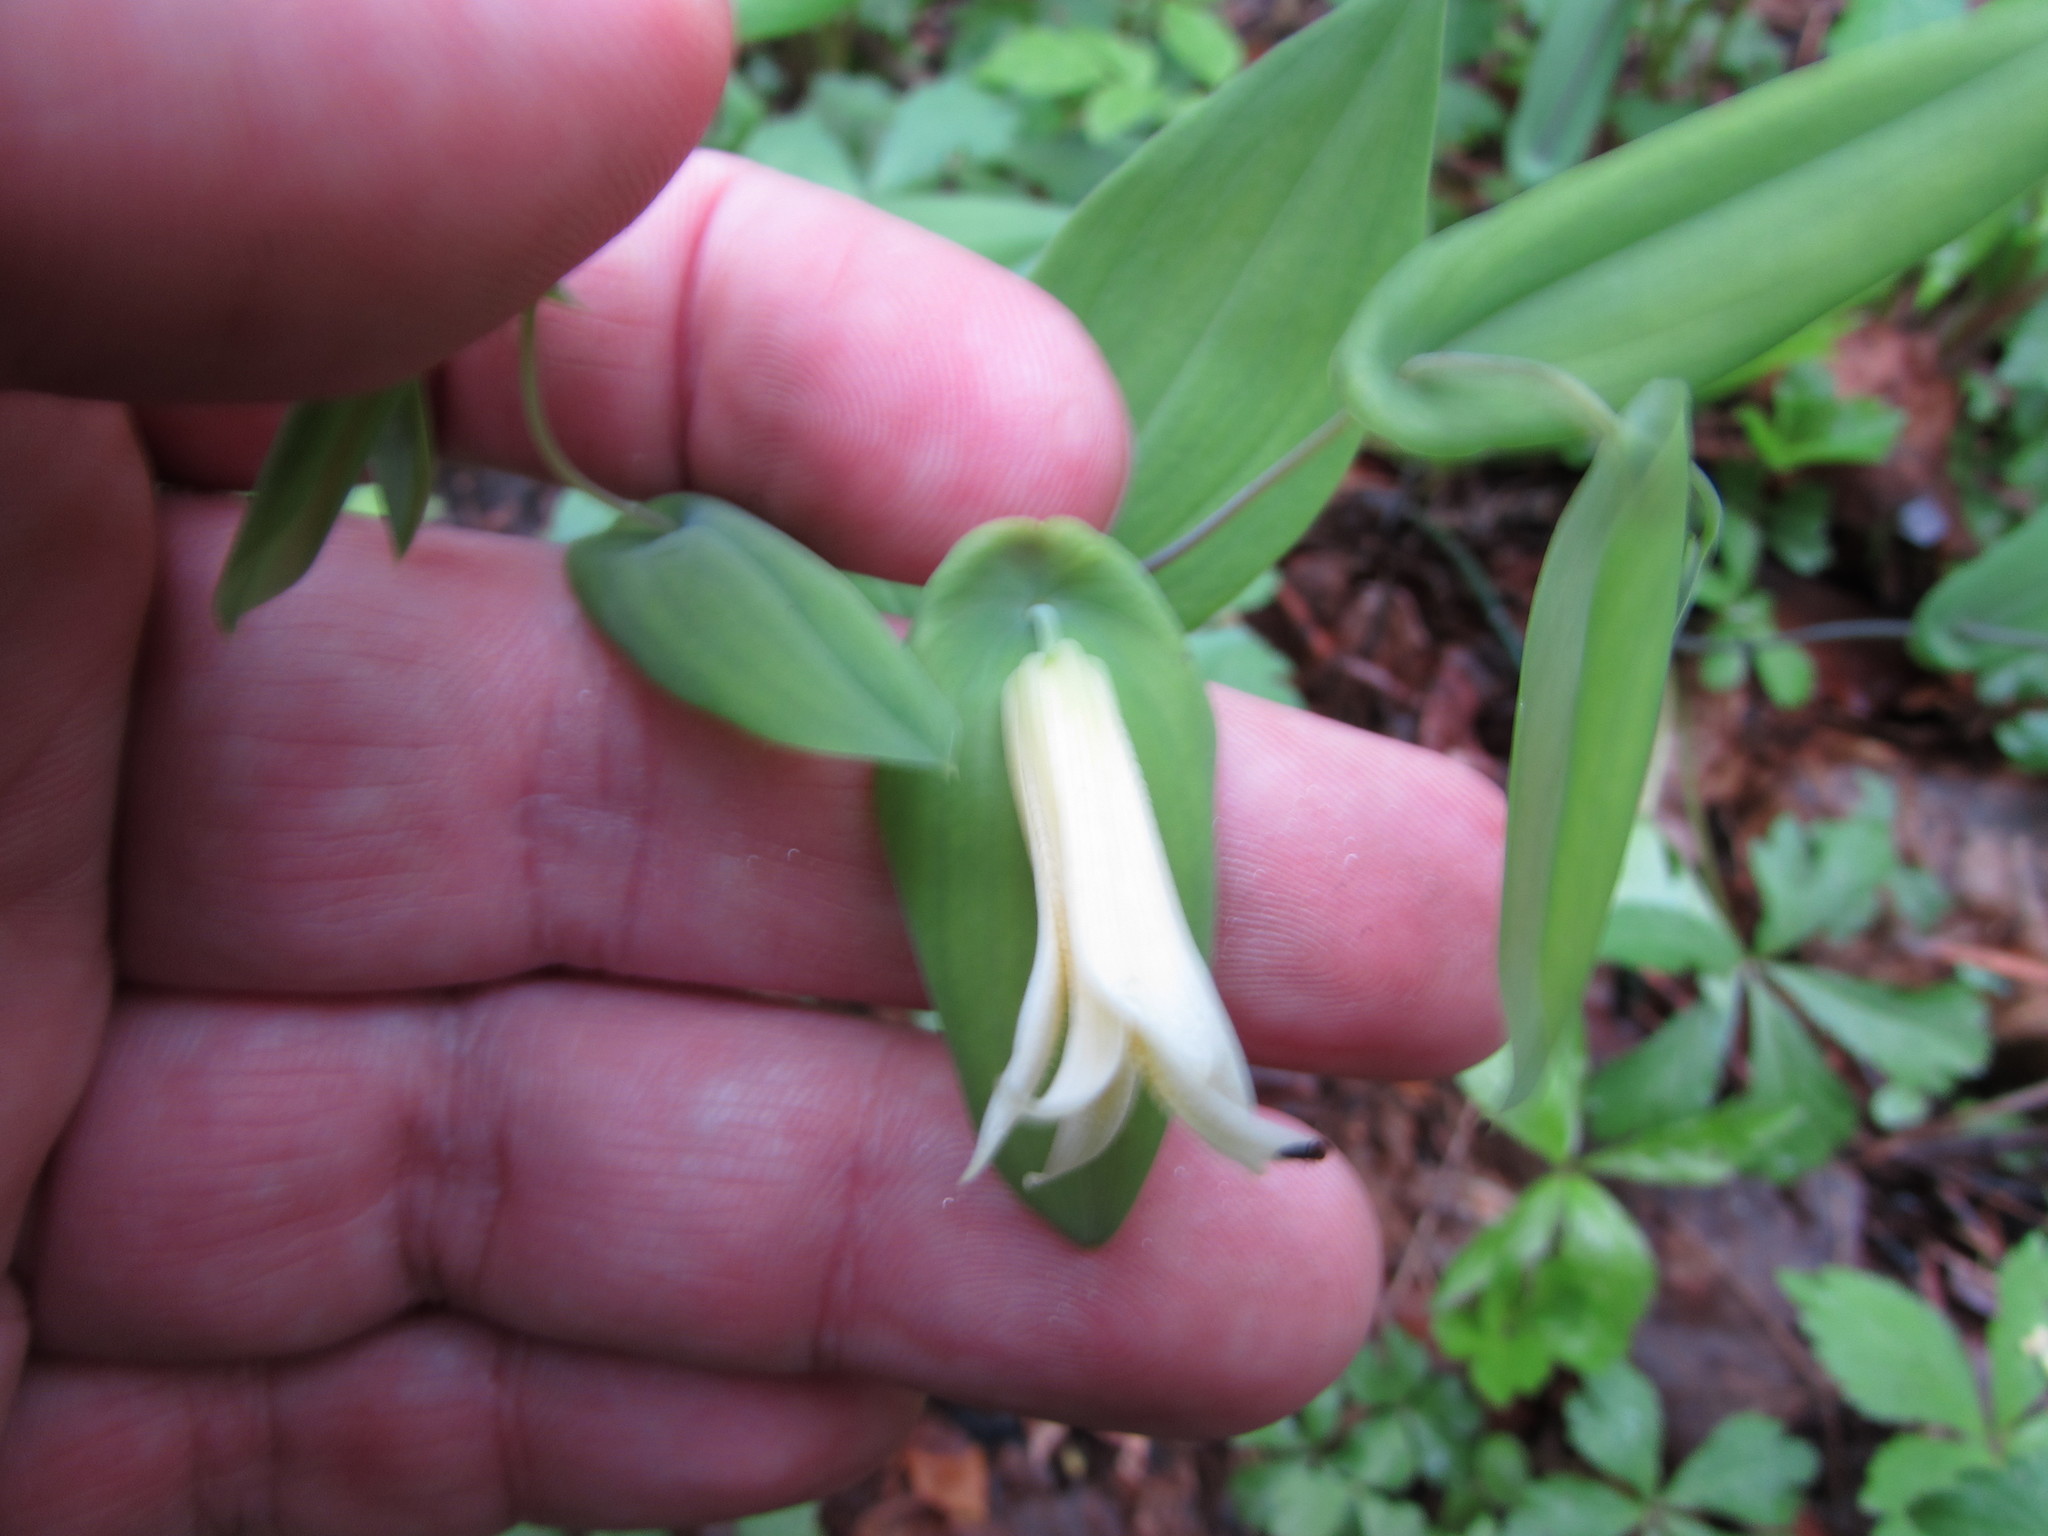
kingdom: Plantae
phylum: Tracheophyta
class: Liliopsida
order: Liliales
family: Colchicaceae
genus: Uvularia
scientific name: Uvularia perfoliata
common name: Perfoliate bellwort
